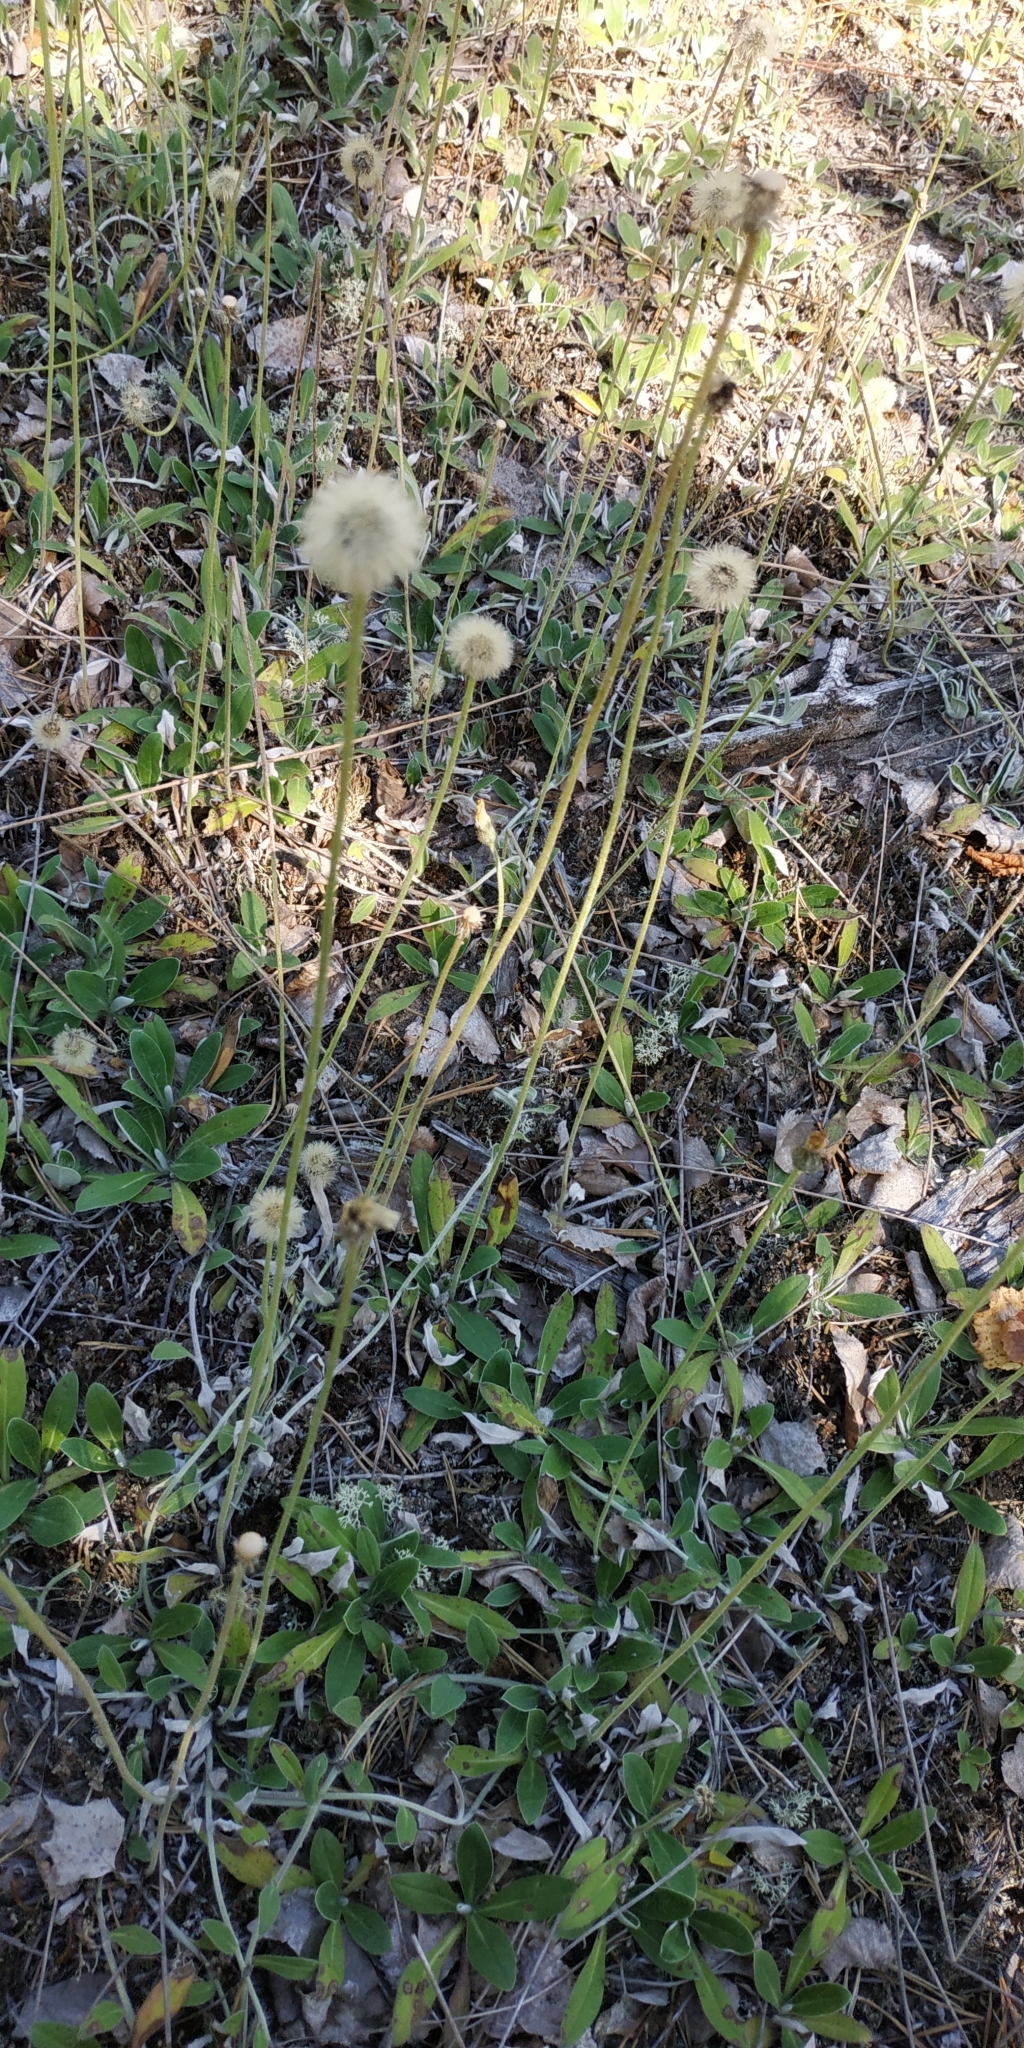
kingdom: Plantae
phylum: Tracheophyta
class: Magnoliopsida
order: Asterales
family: Asteraceae
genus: Pilosella
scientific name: Pilosella officinarum
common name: Mouse-ear hawkweed
